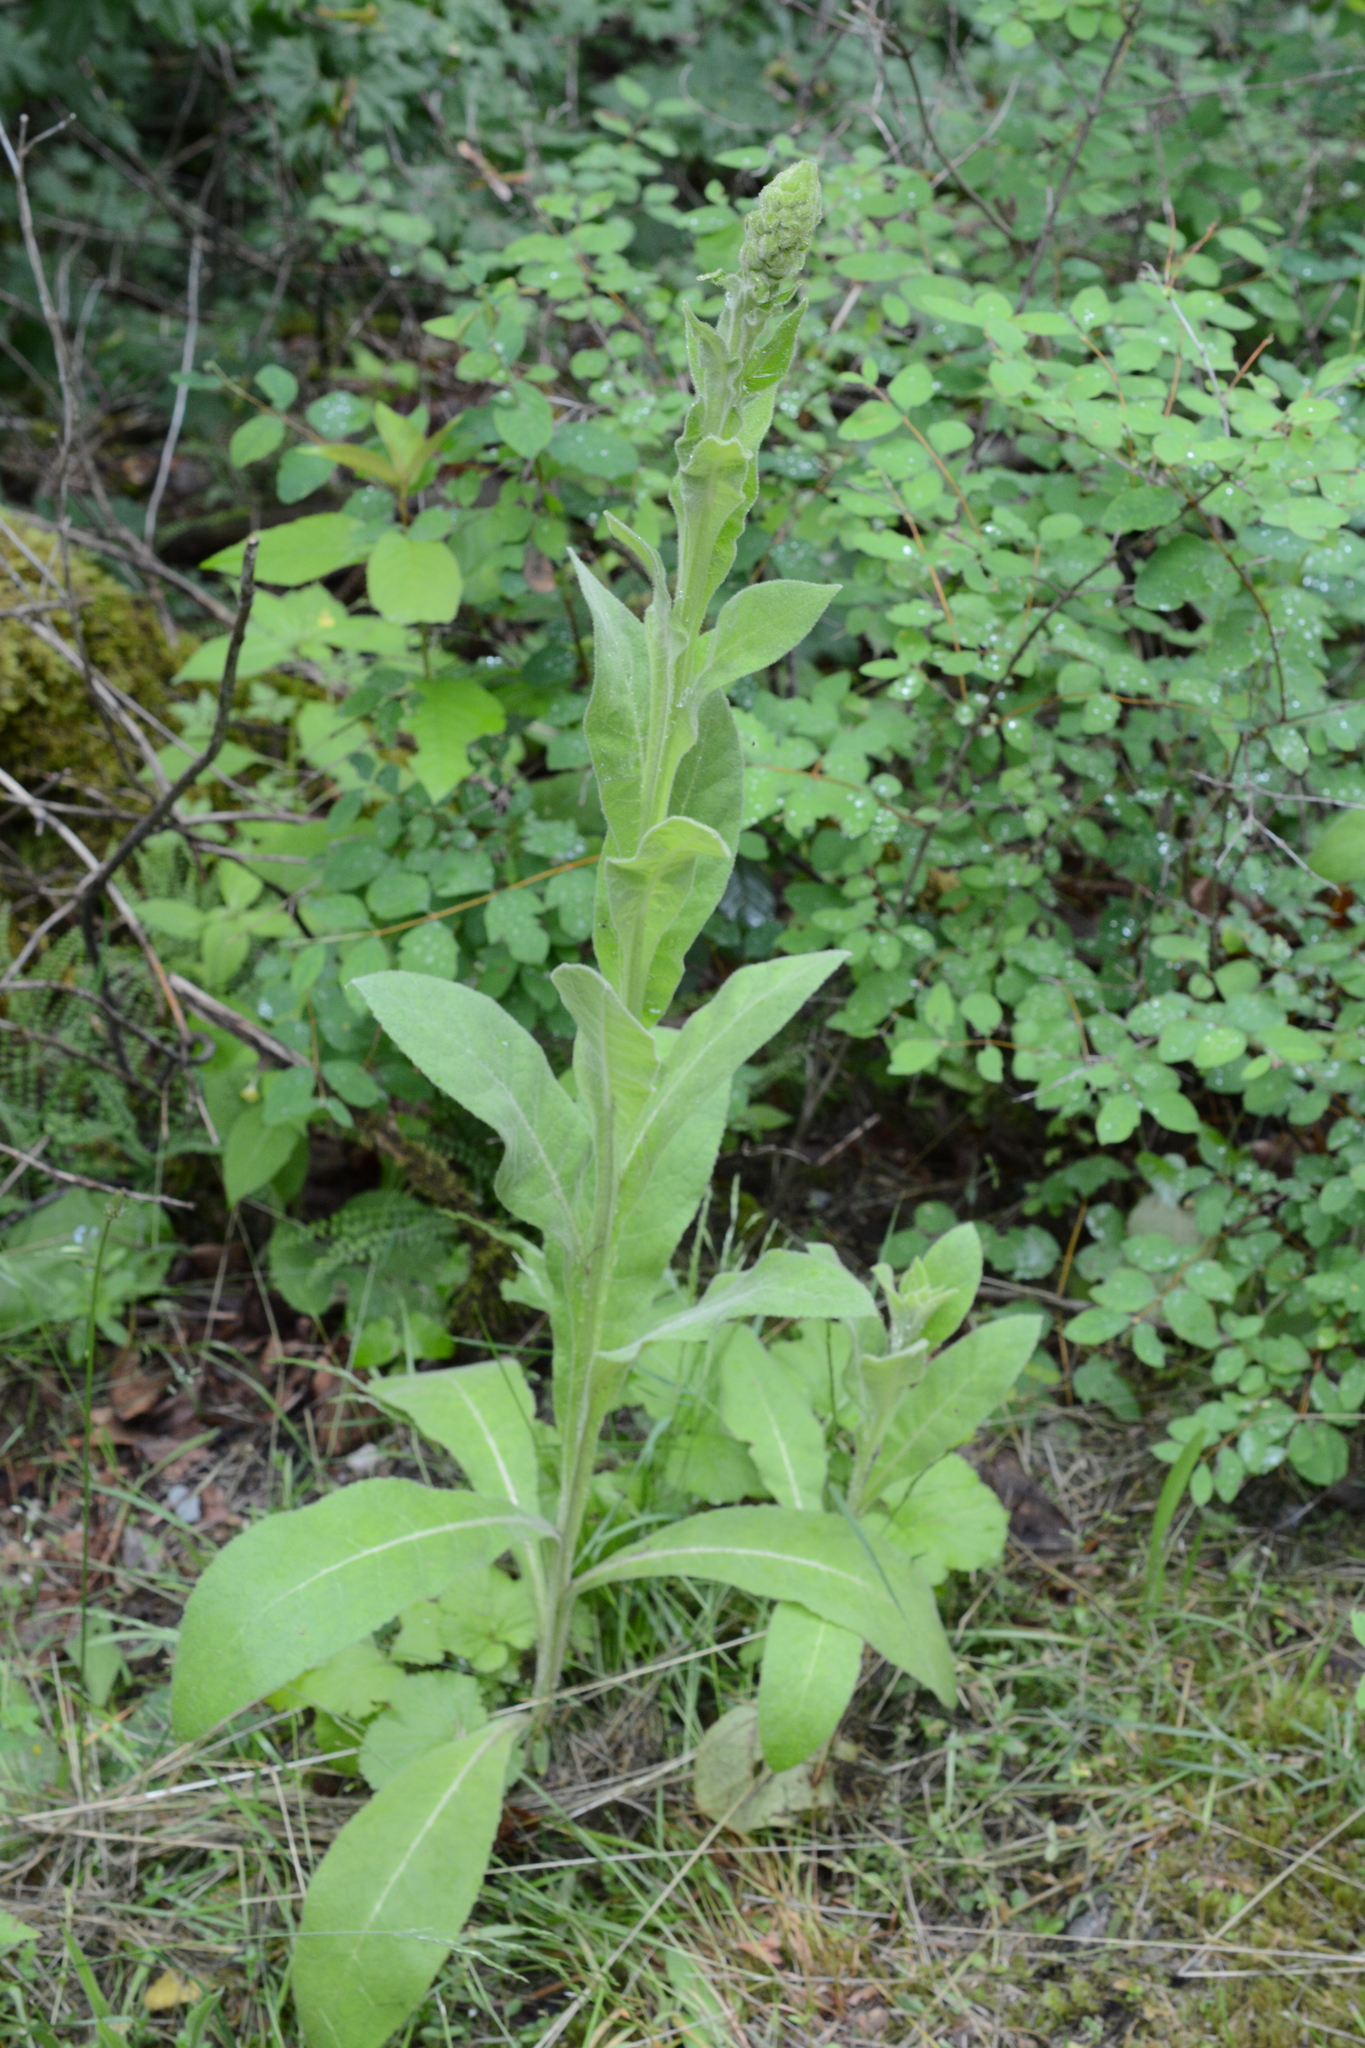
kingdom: Plantae
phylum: Tracheophyta
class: Magnoliopsida
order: Lamiales
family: Scrophulariaceae
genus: Verbascum
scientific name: Verbascum thapsus
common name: Common mullein
